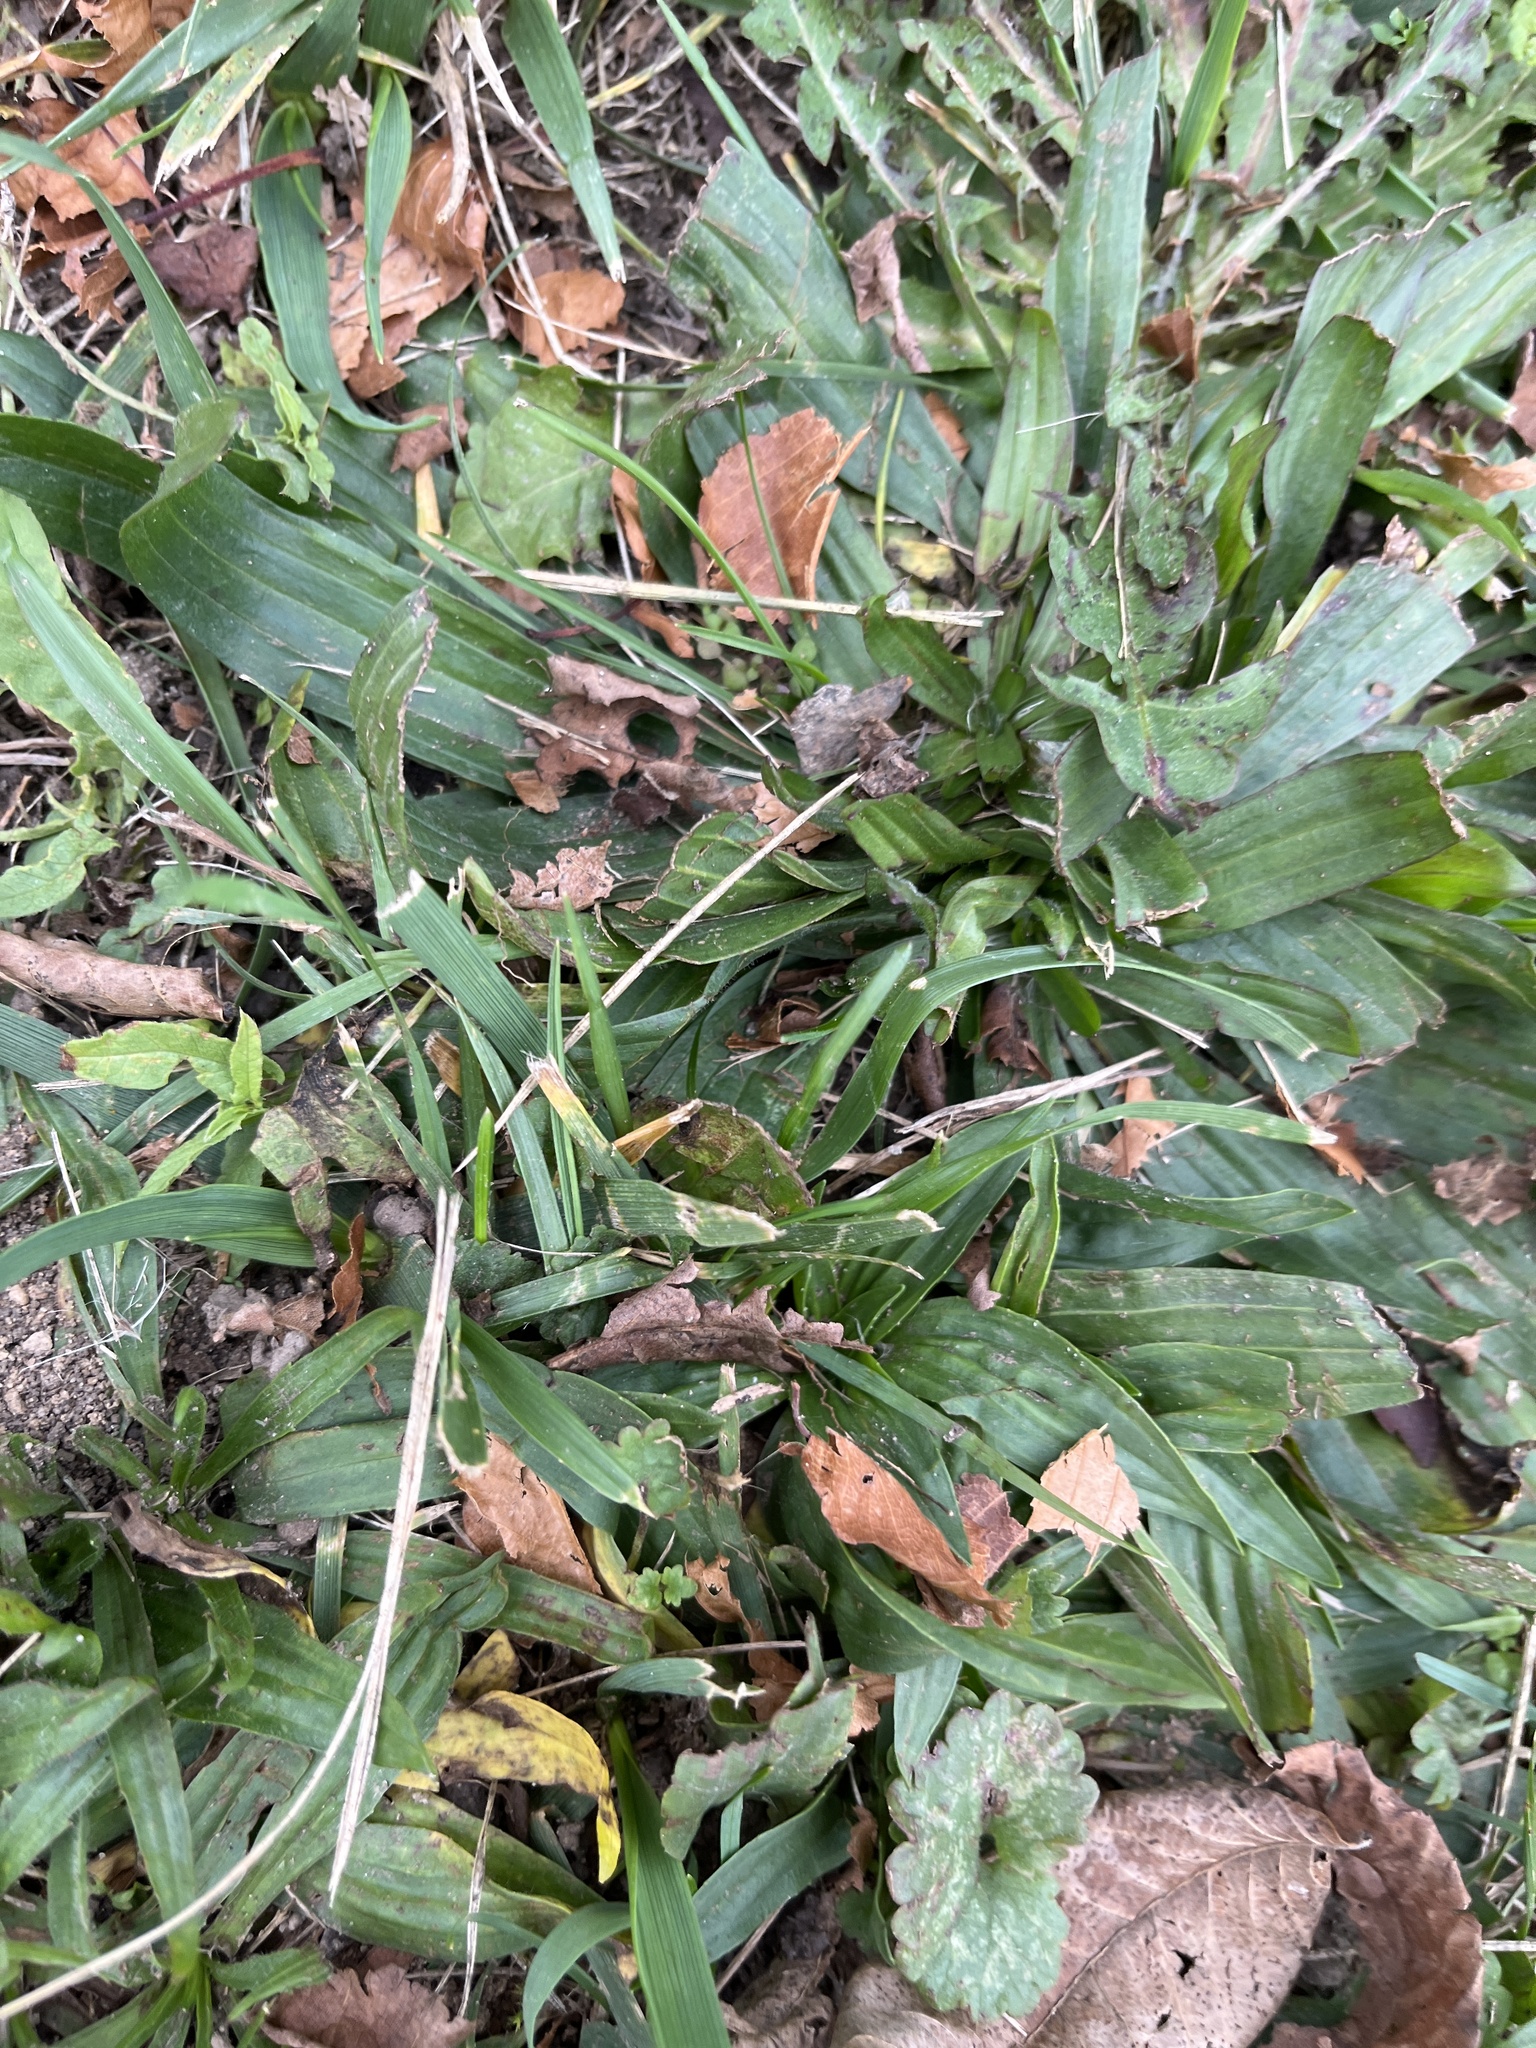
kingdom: Plantae
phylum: Tracheophyta
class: Magnoliopsida
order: Lamiales
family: Plantaginaceae
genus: Plantago
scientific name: Plantago lanceolata
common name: Ribwort plantain
